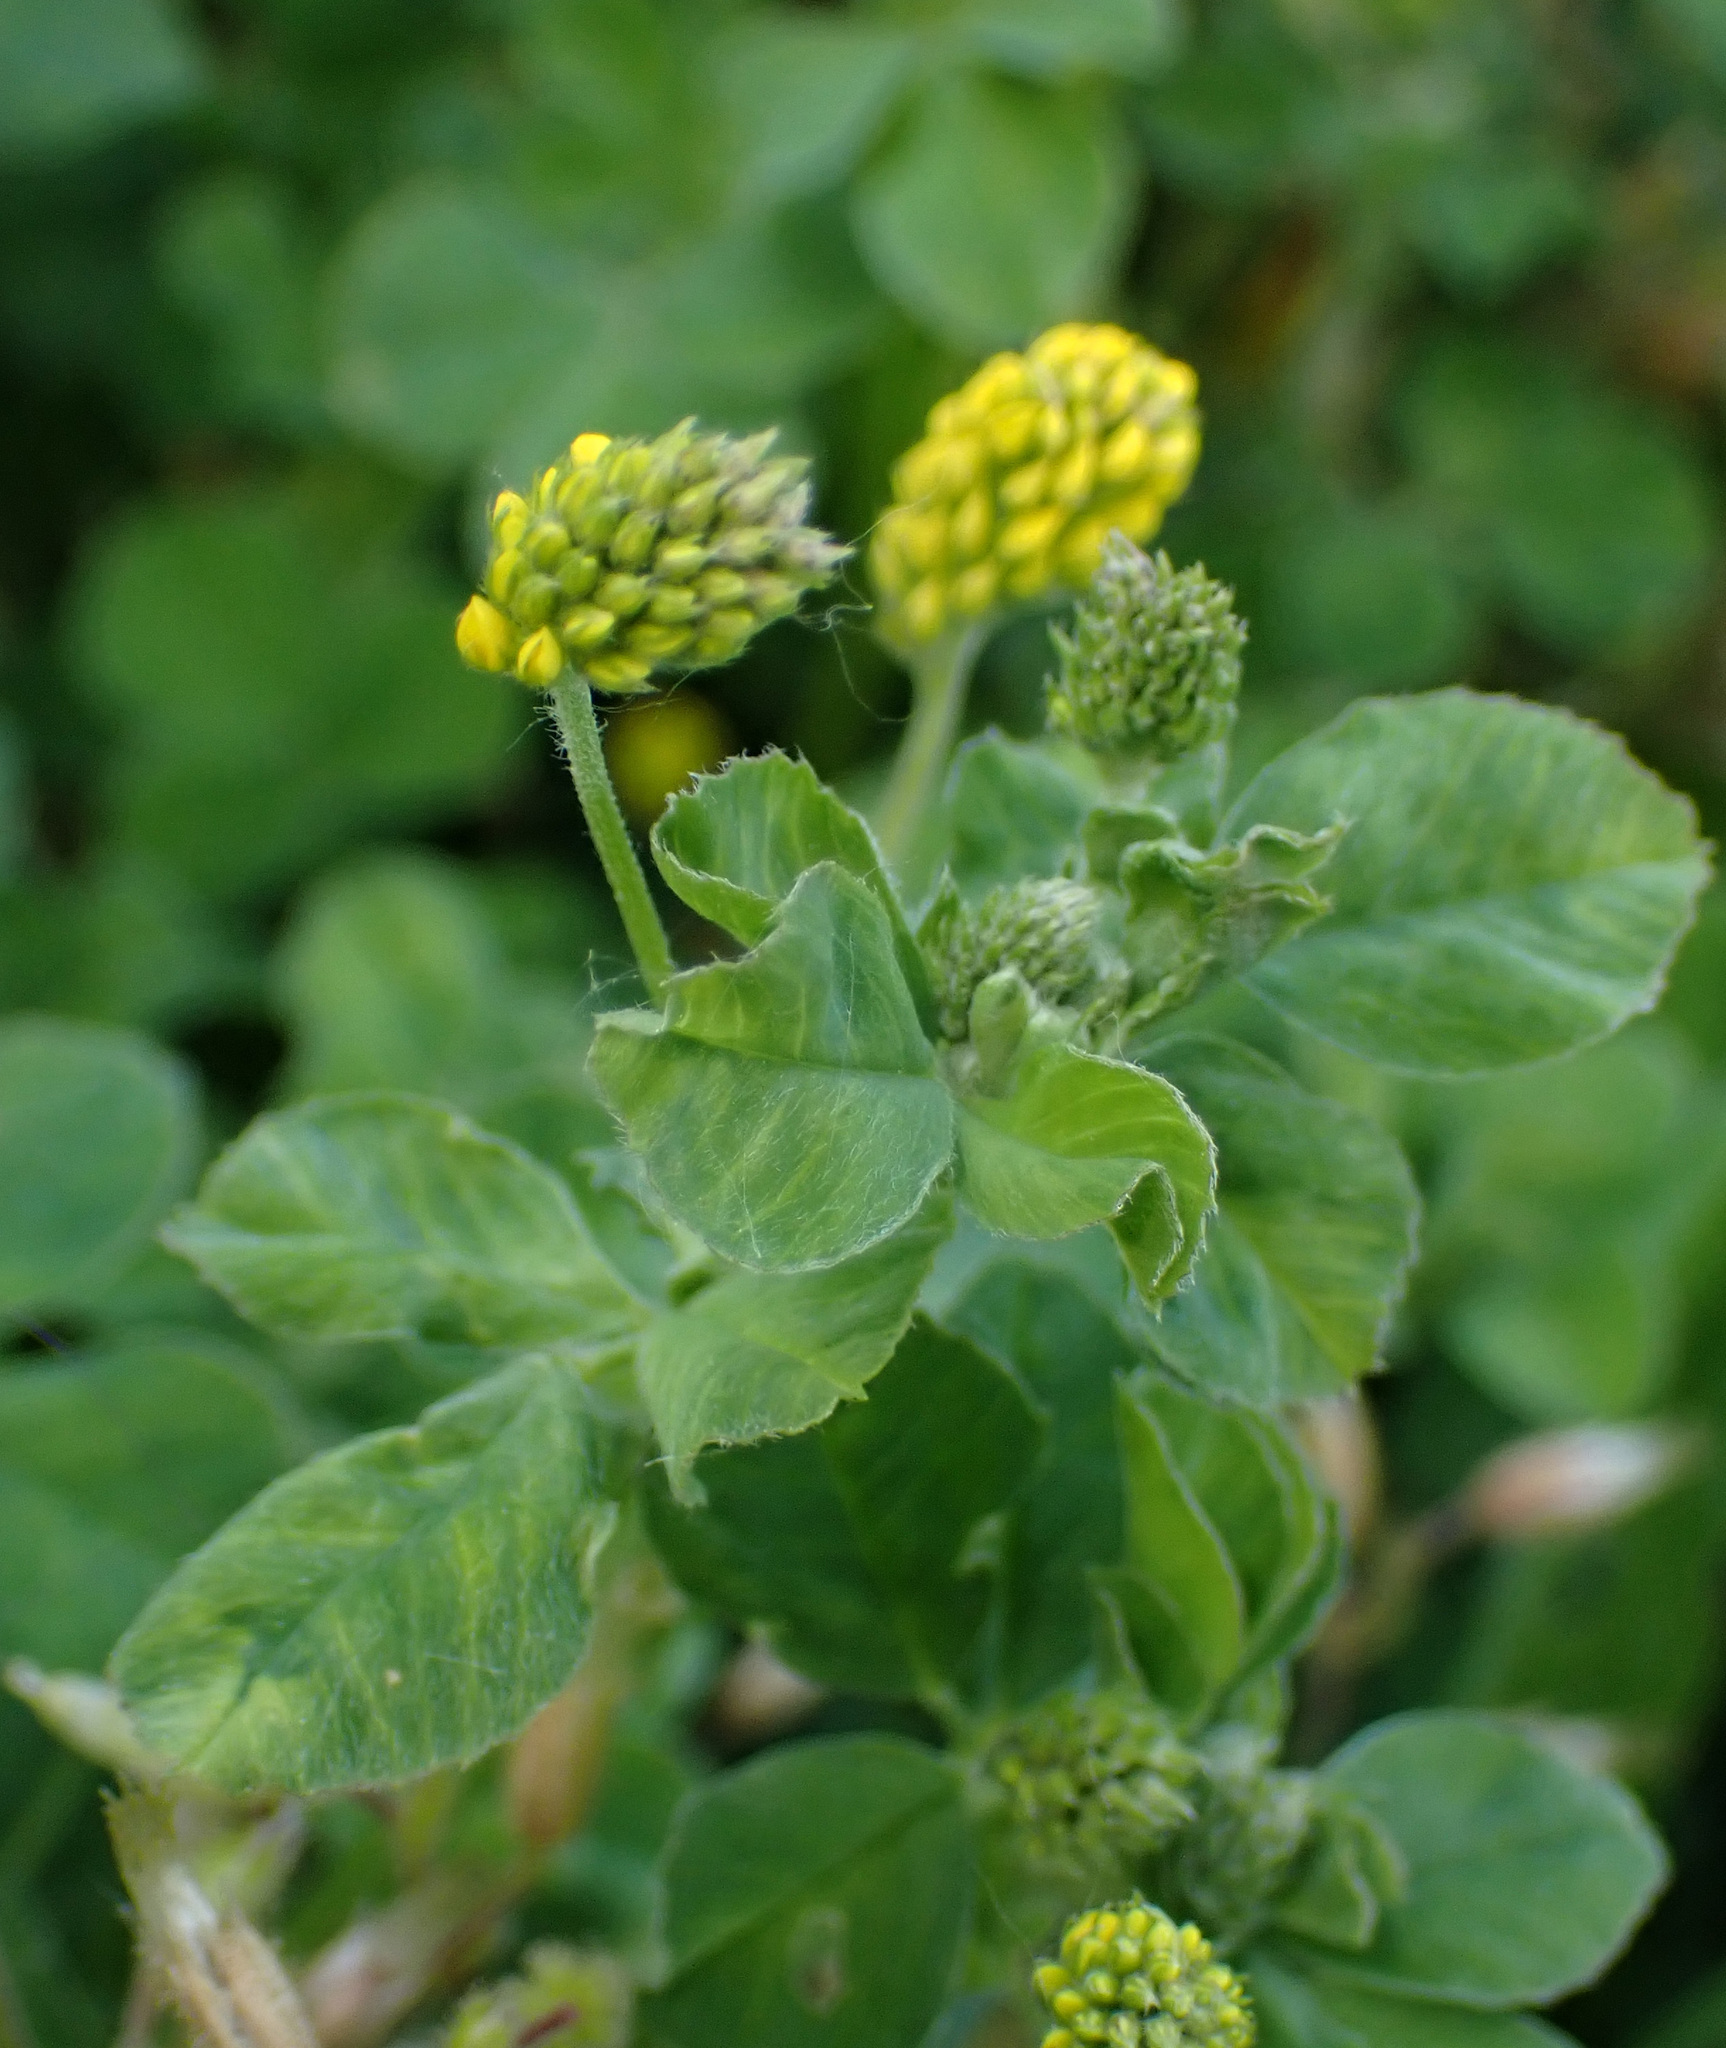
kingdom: Plantae
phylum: Tracheophyta
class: Magnoliopsida
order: Fabales
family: Fabaceae
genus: Medicago
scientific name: Medicago lupulina
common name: Black medick
